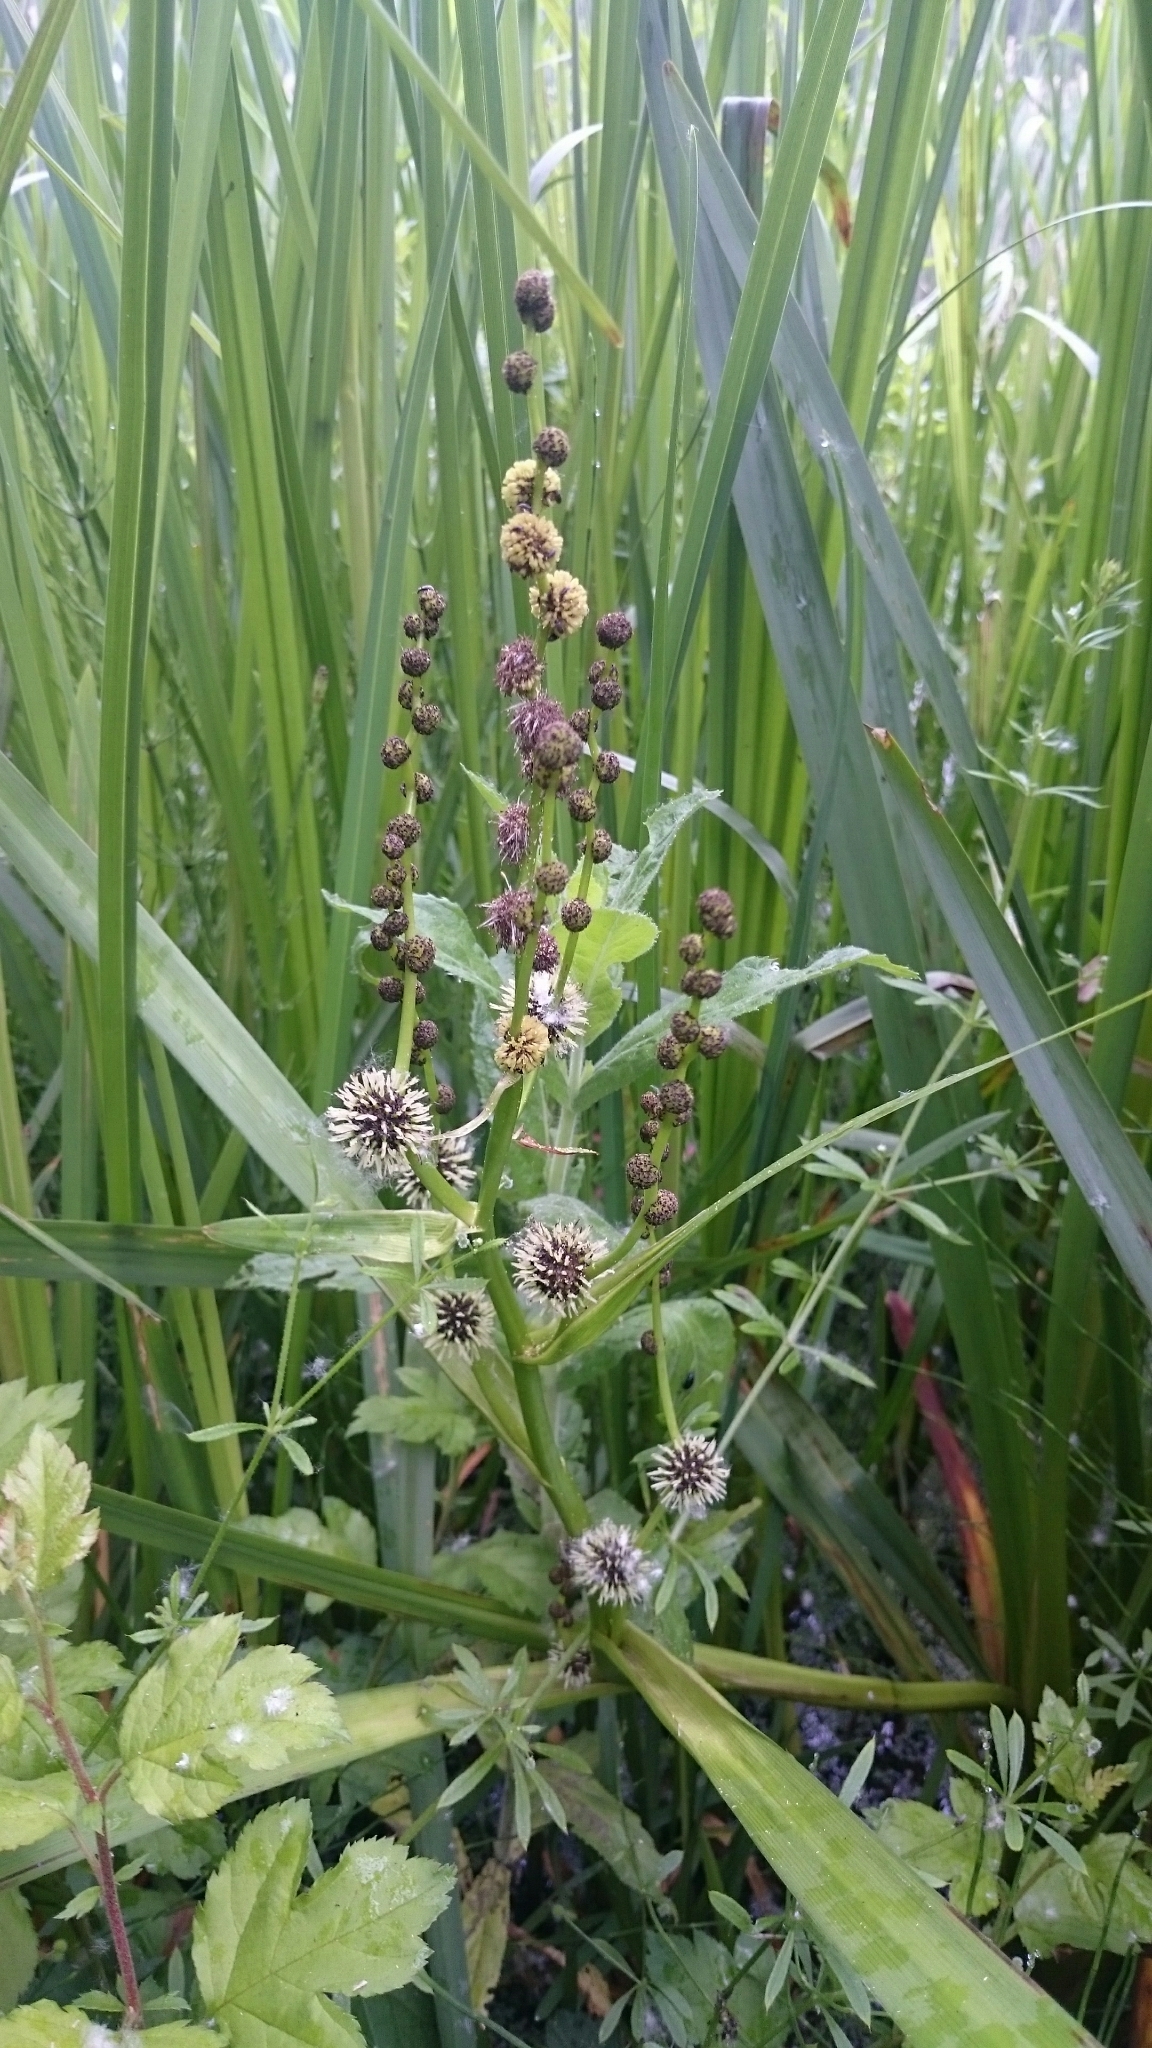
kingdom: Plantae
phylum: Tracheophyta
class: Liliopsida
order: Poales
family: Typhaceae
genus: Sparganium
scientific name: Sparganium erectum
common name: Branched bur-reed
